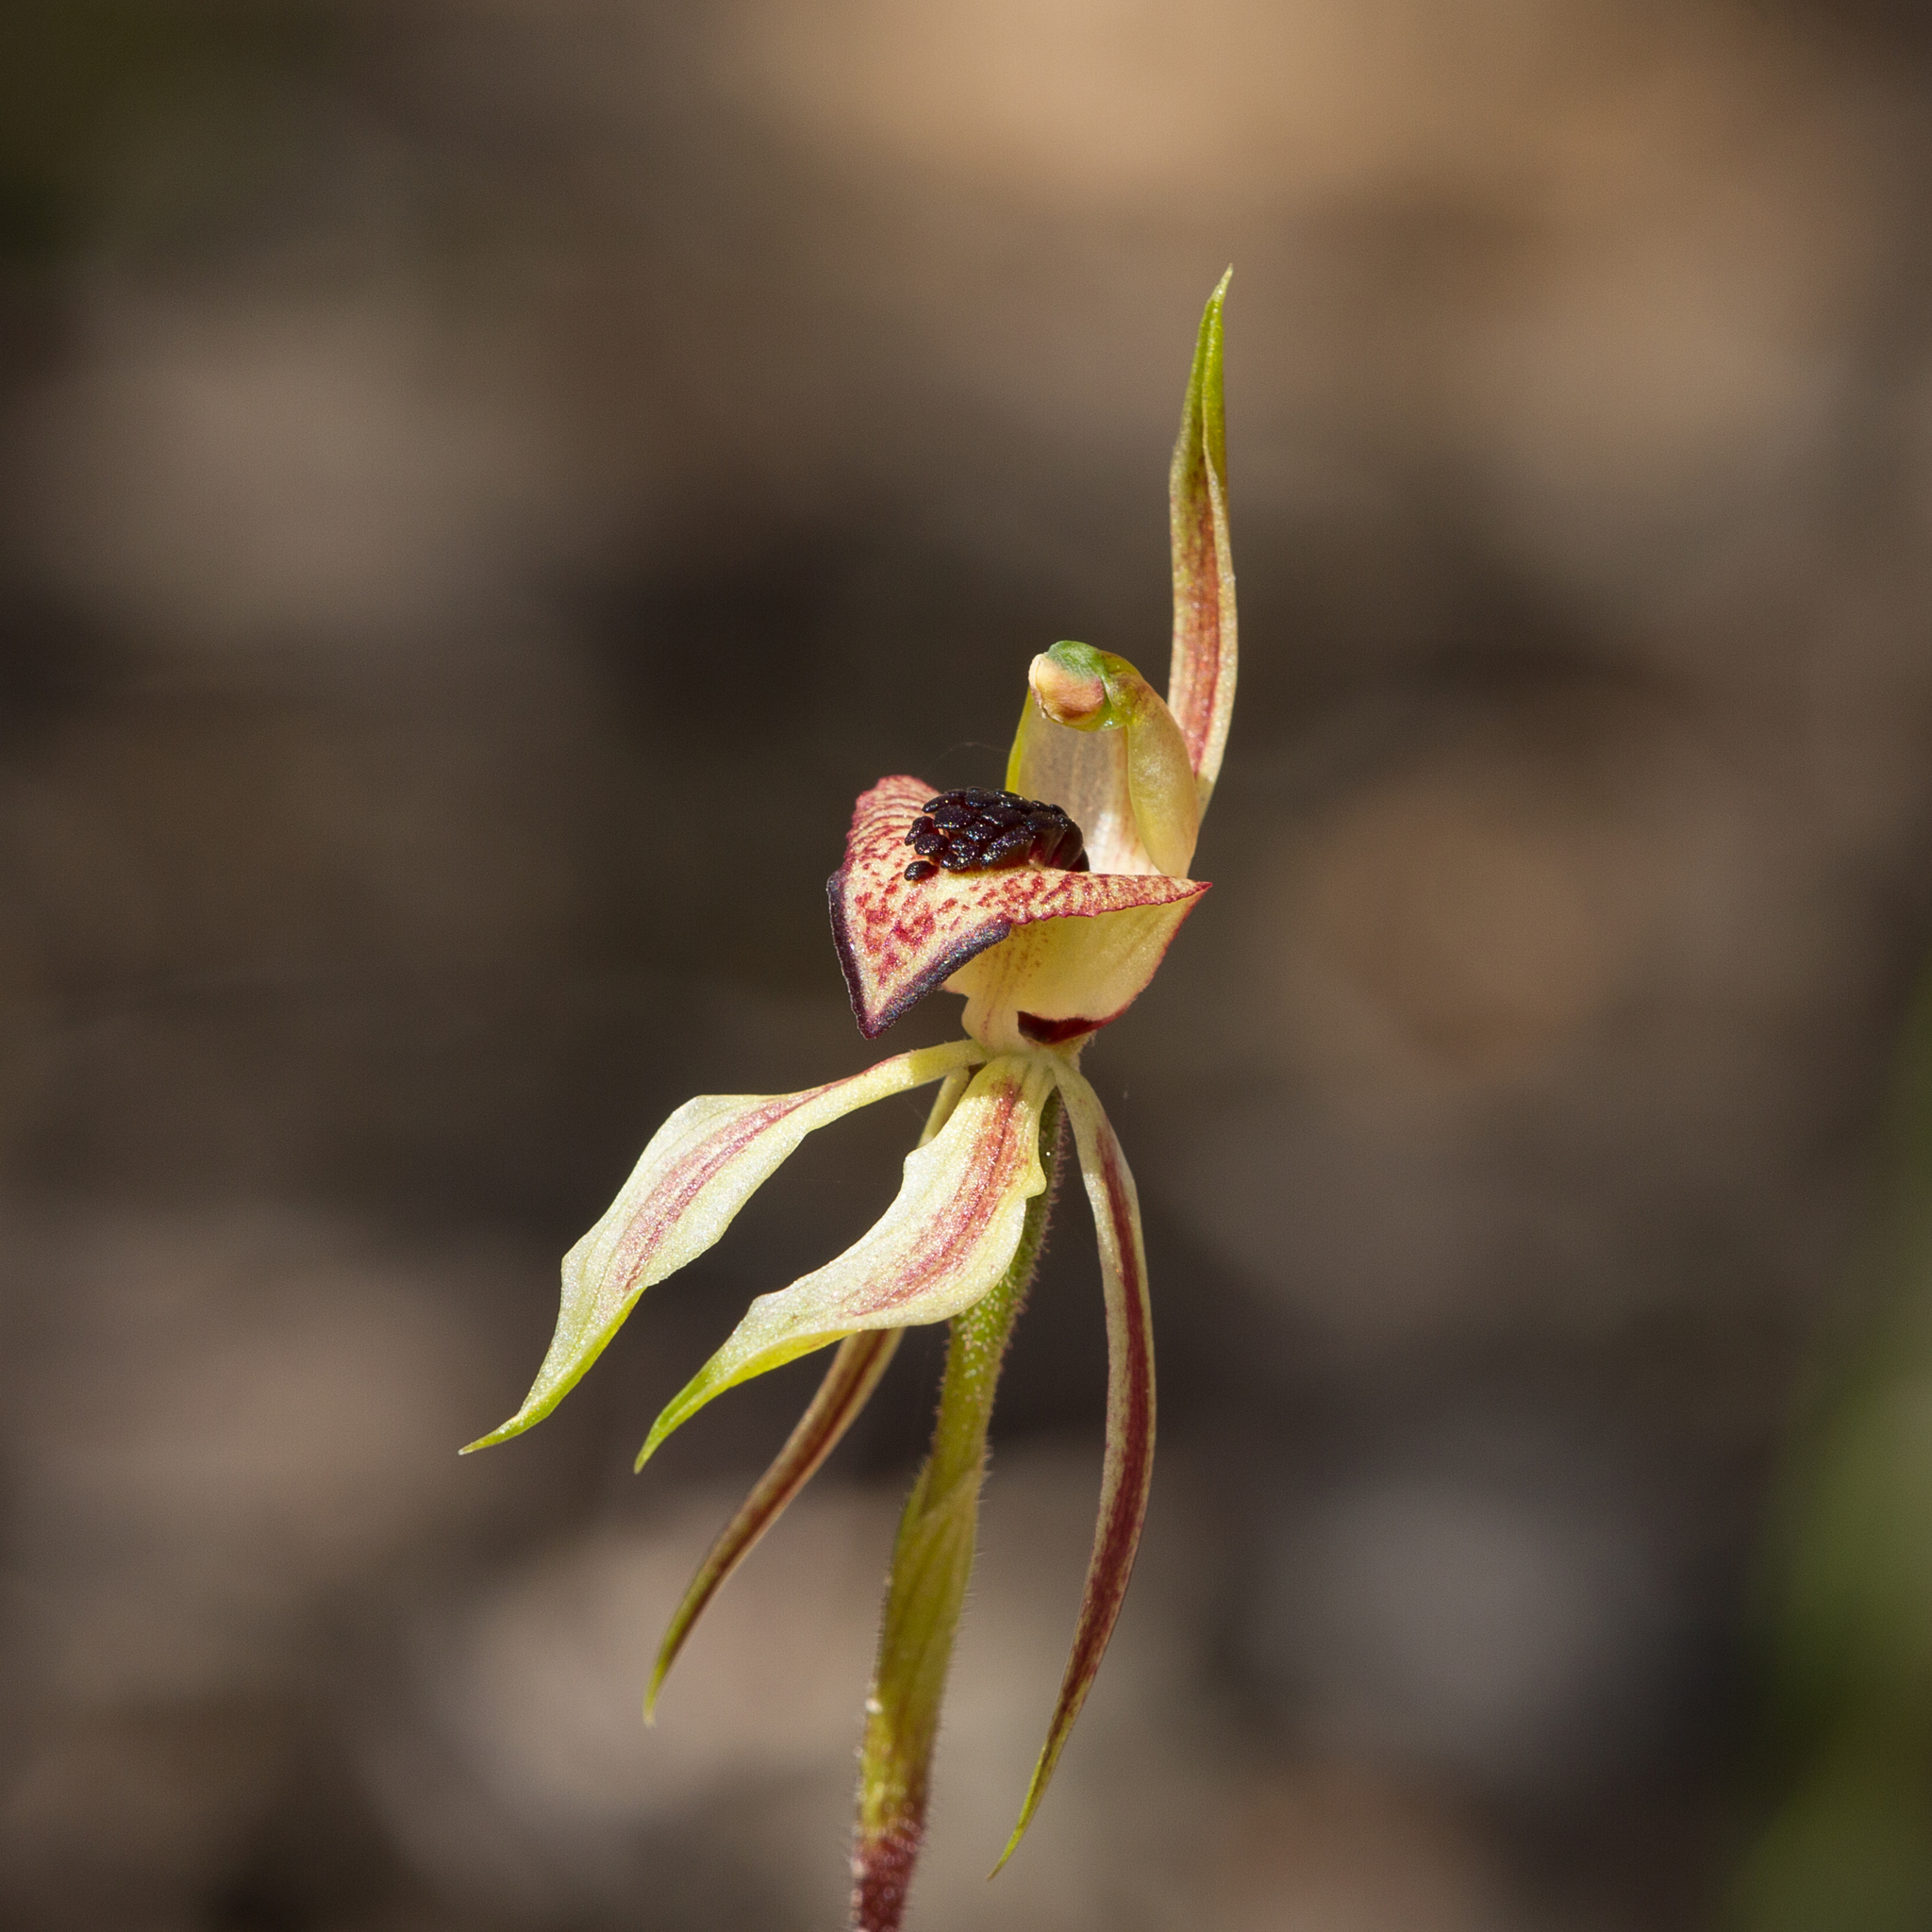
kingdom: Plantae
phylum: Tracheophyta
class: Liliopsida
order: Asparagales
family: Orchidaceae
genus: Caladenia
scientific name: Caladenia cardiochila
